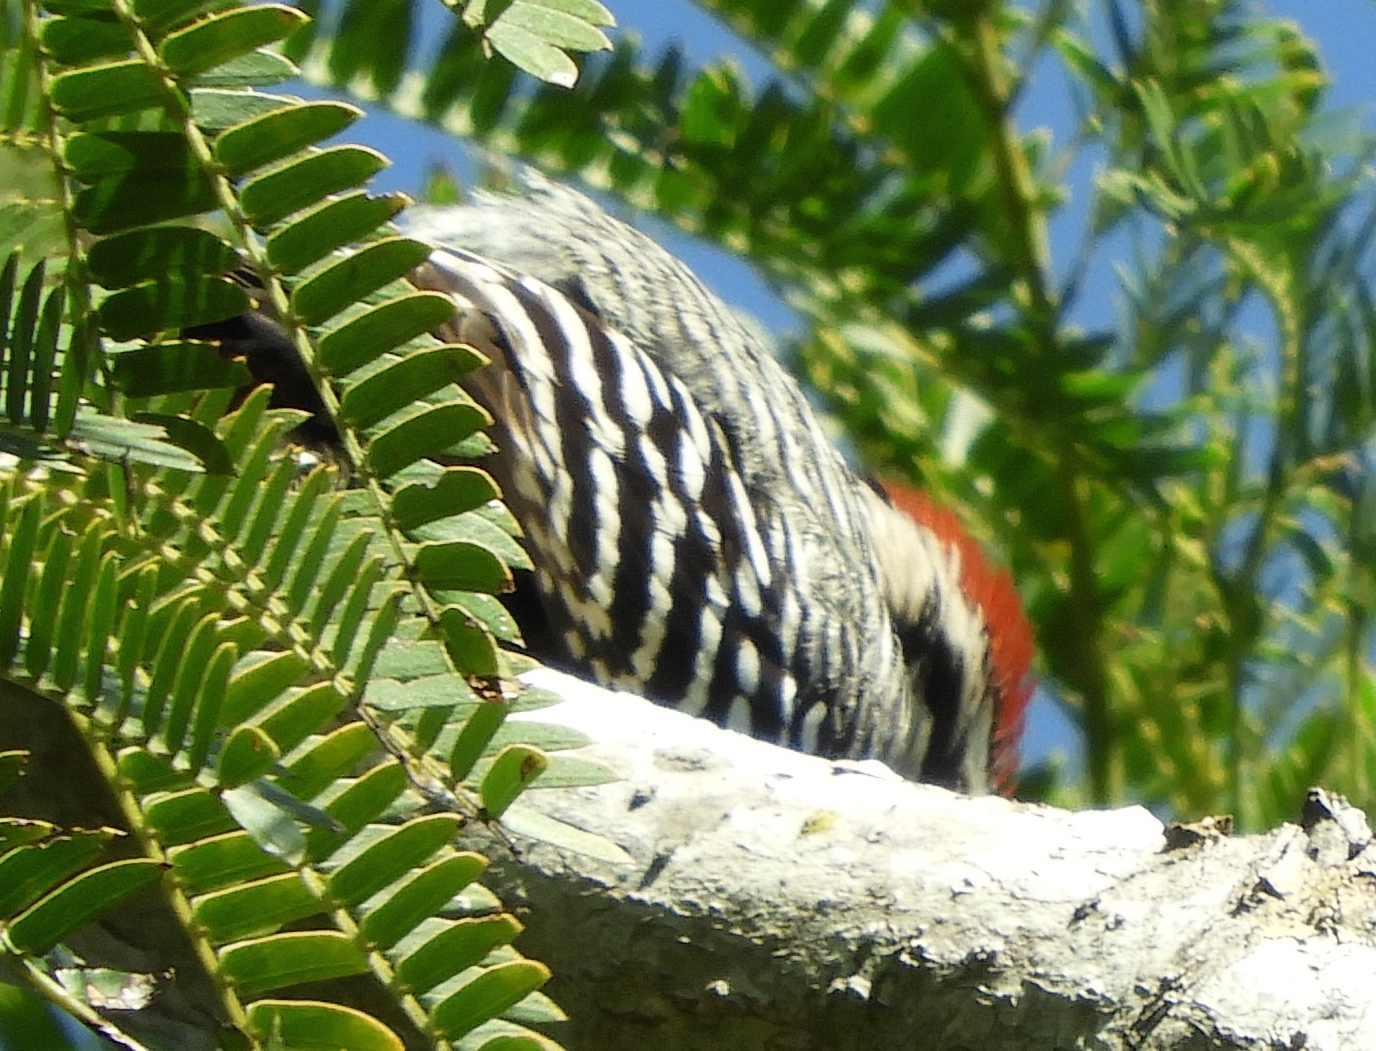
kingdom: Animalia
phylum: Chordata
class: Aves
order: Piciformes
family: Picidae
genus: Dryobates
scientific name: Dryobates scalaris
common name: Ladder-backed woodpecker
